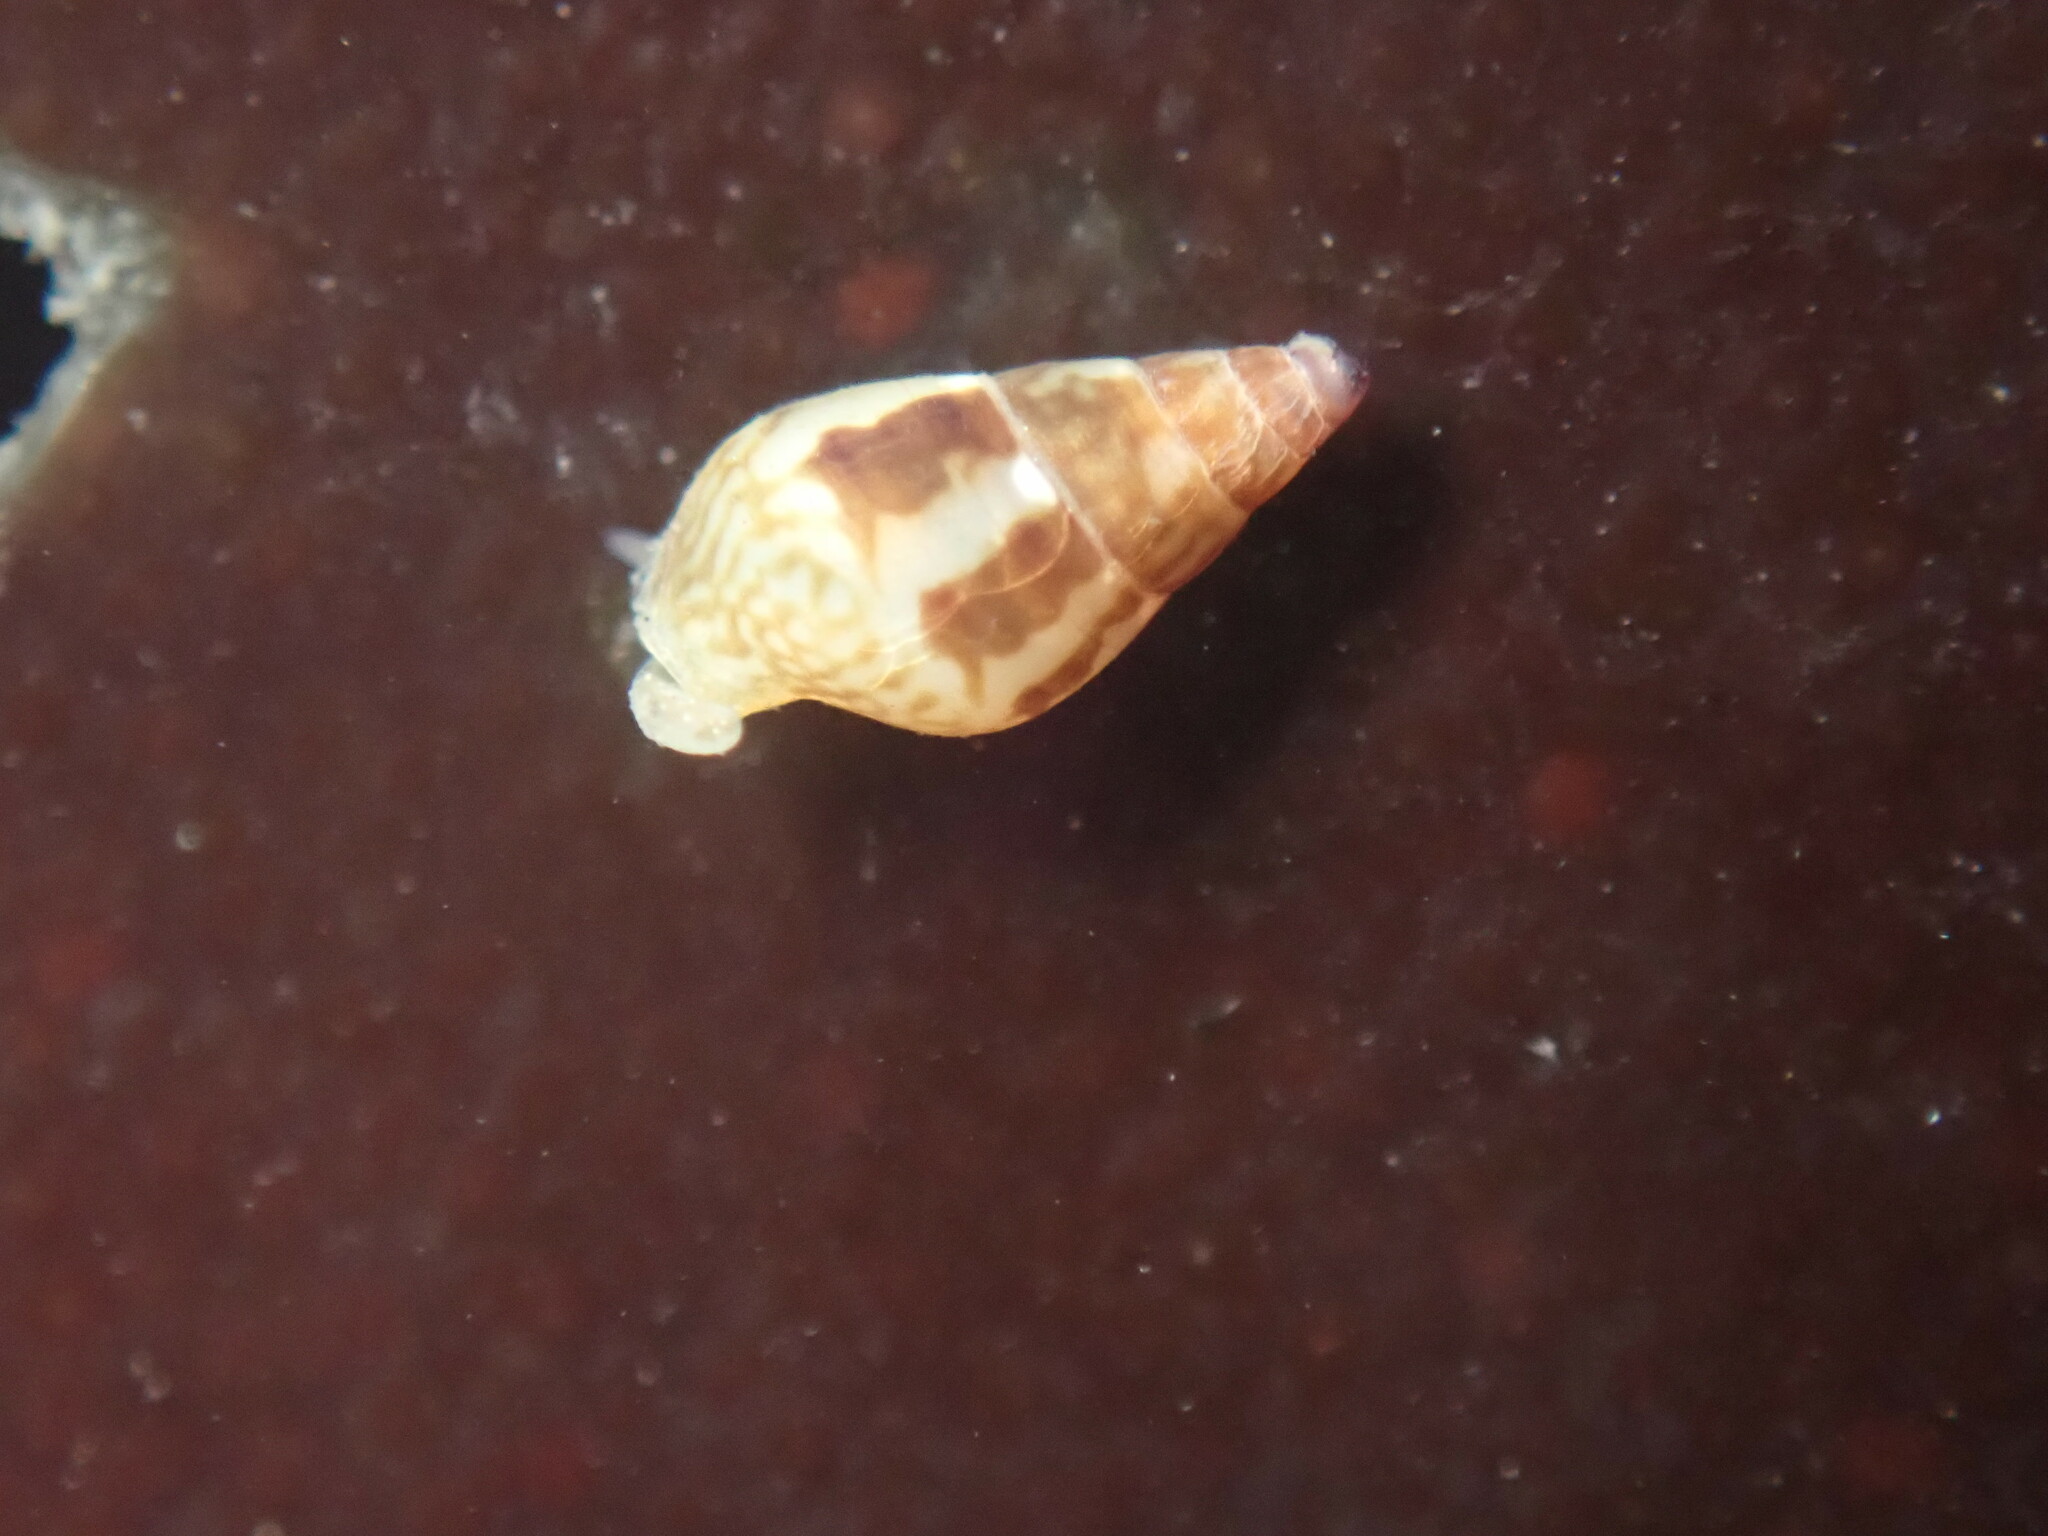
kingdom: Animalia
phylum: Mollusca
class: Gastropoda
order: Neogastropoda
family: Columbellidae
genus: Alia
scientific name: Alia carinata
